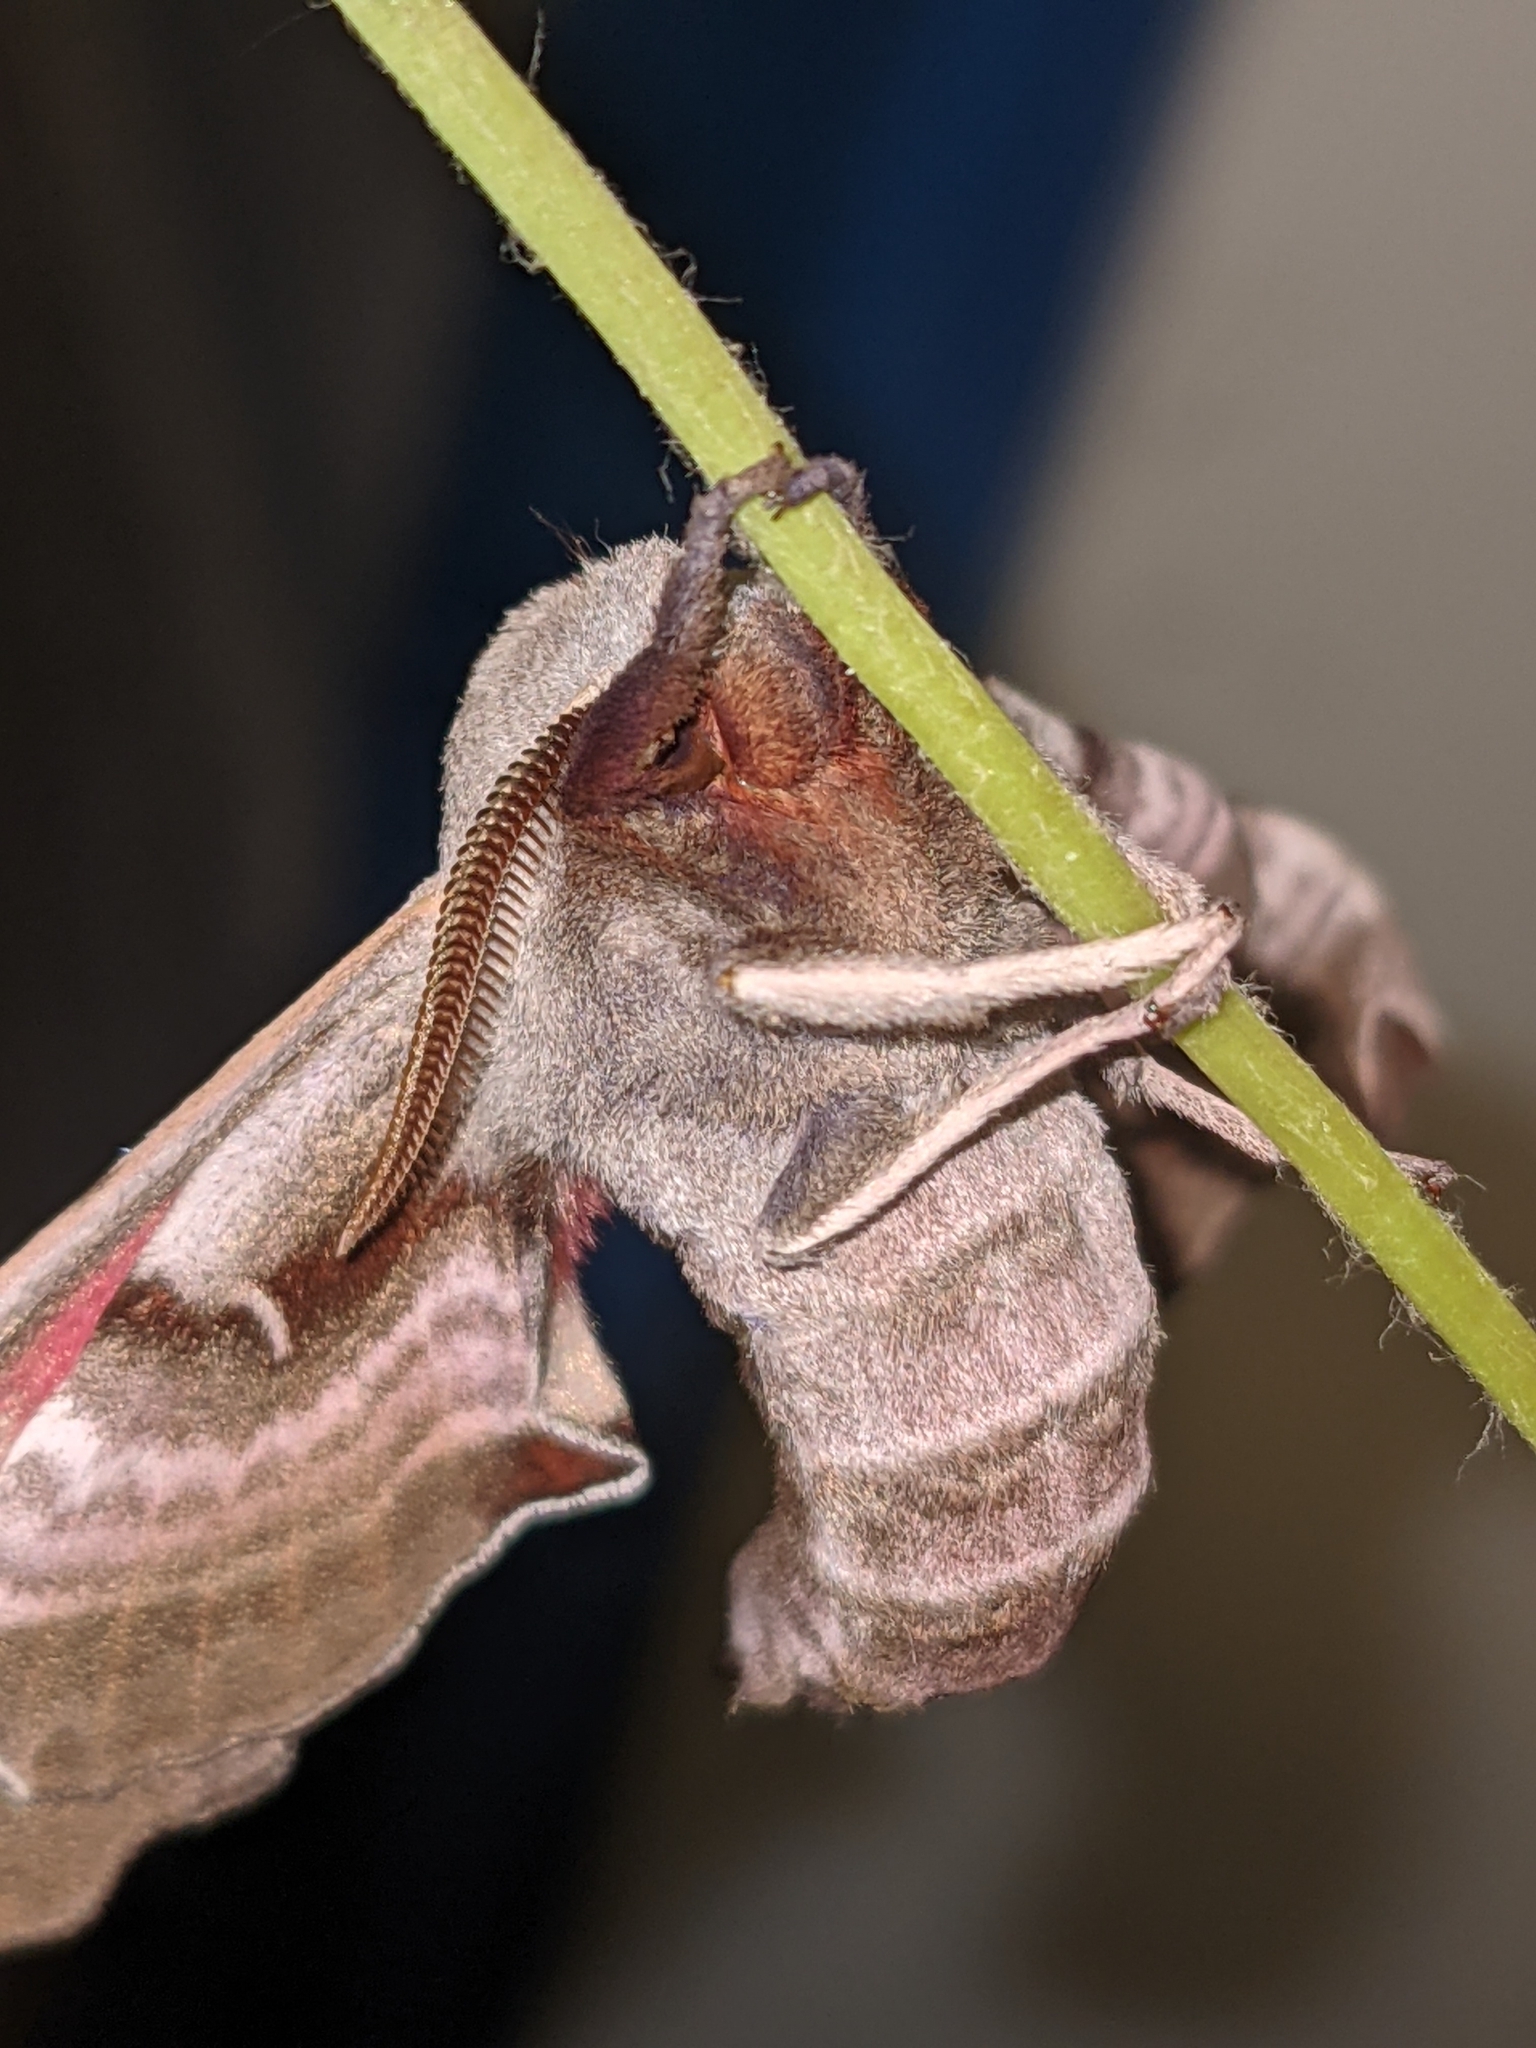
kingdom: Animalia
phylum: Arthropoda
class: Insecta
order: Lepidoptera
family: Sphingidae
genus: Smerinthus
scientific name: Smerinthus jamaicensis
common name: Twin spotted sphinx
